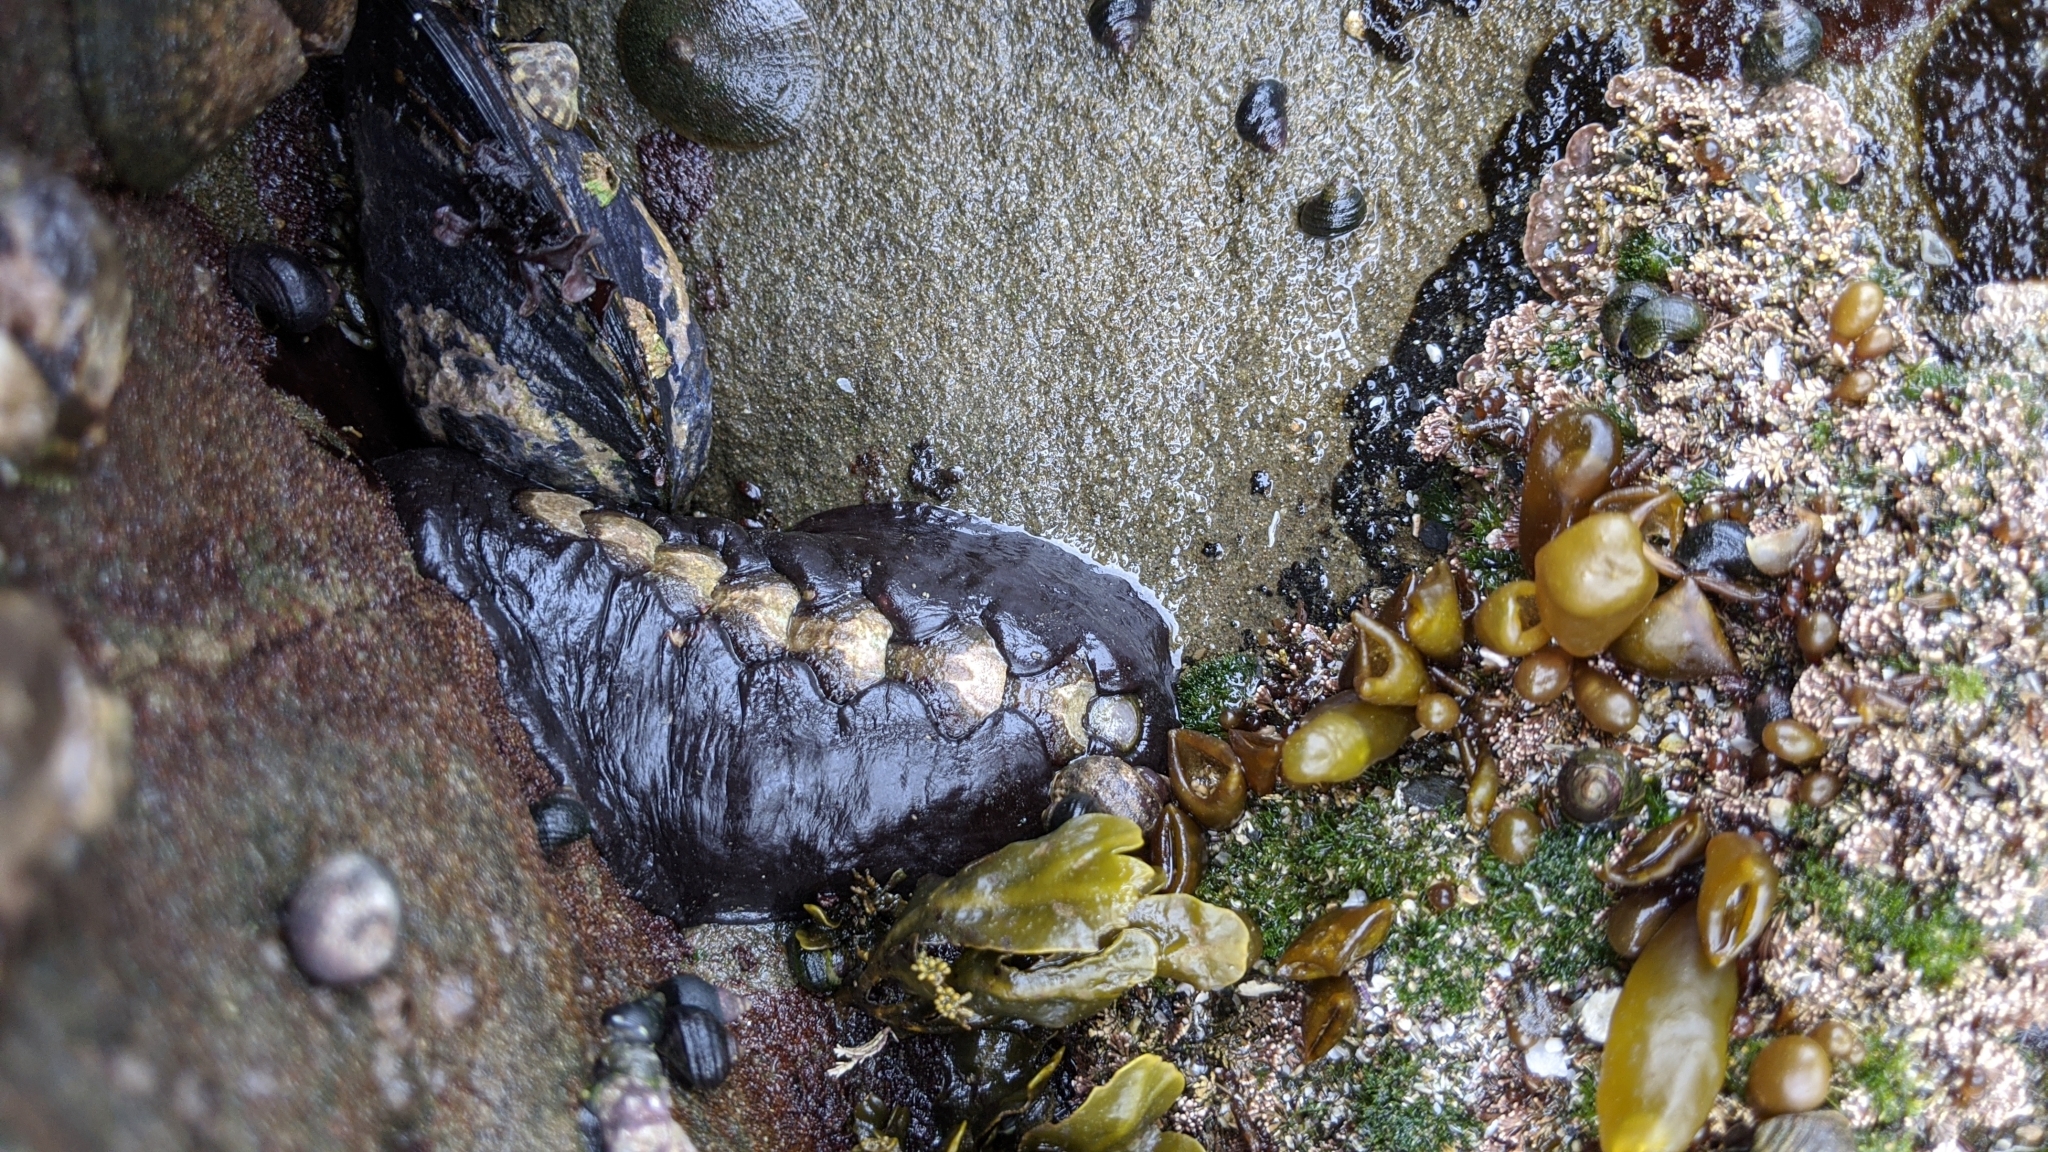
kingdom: Animalia
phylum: Mollusca
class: Polyplacophora
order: Chitonida
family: Mopaliidae
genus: Katharina
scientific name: Katharina tunicata
